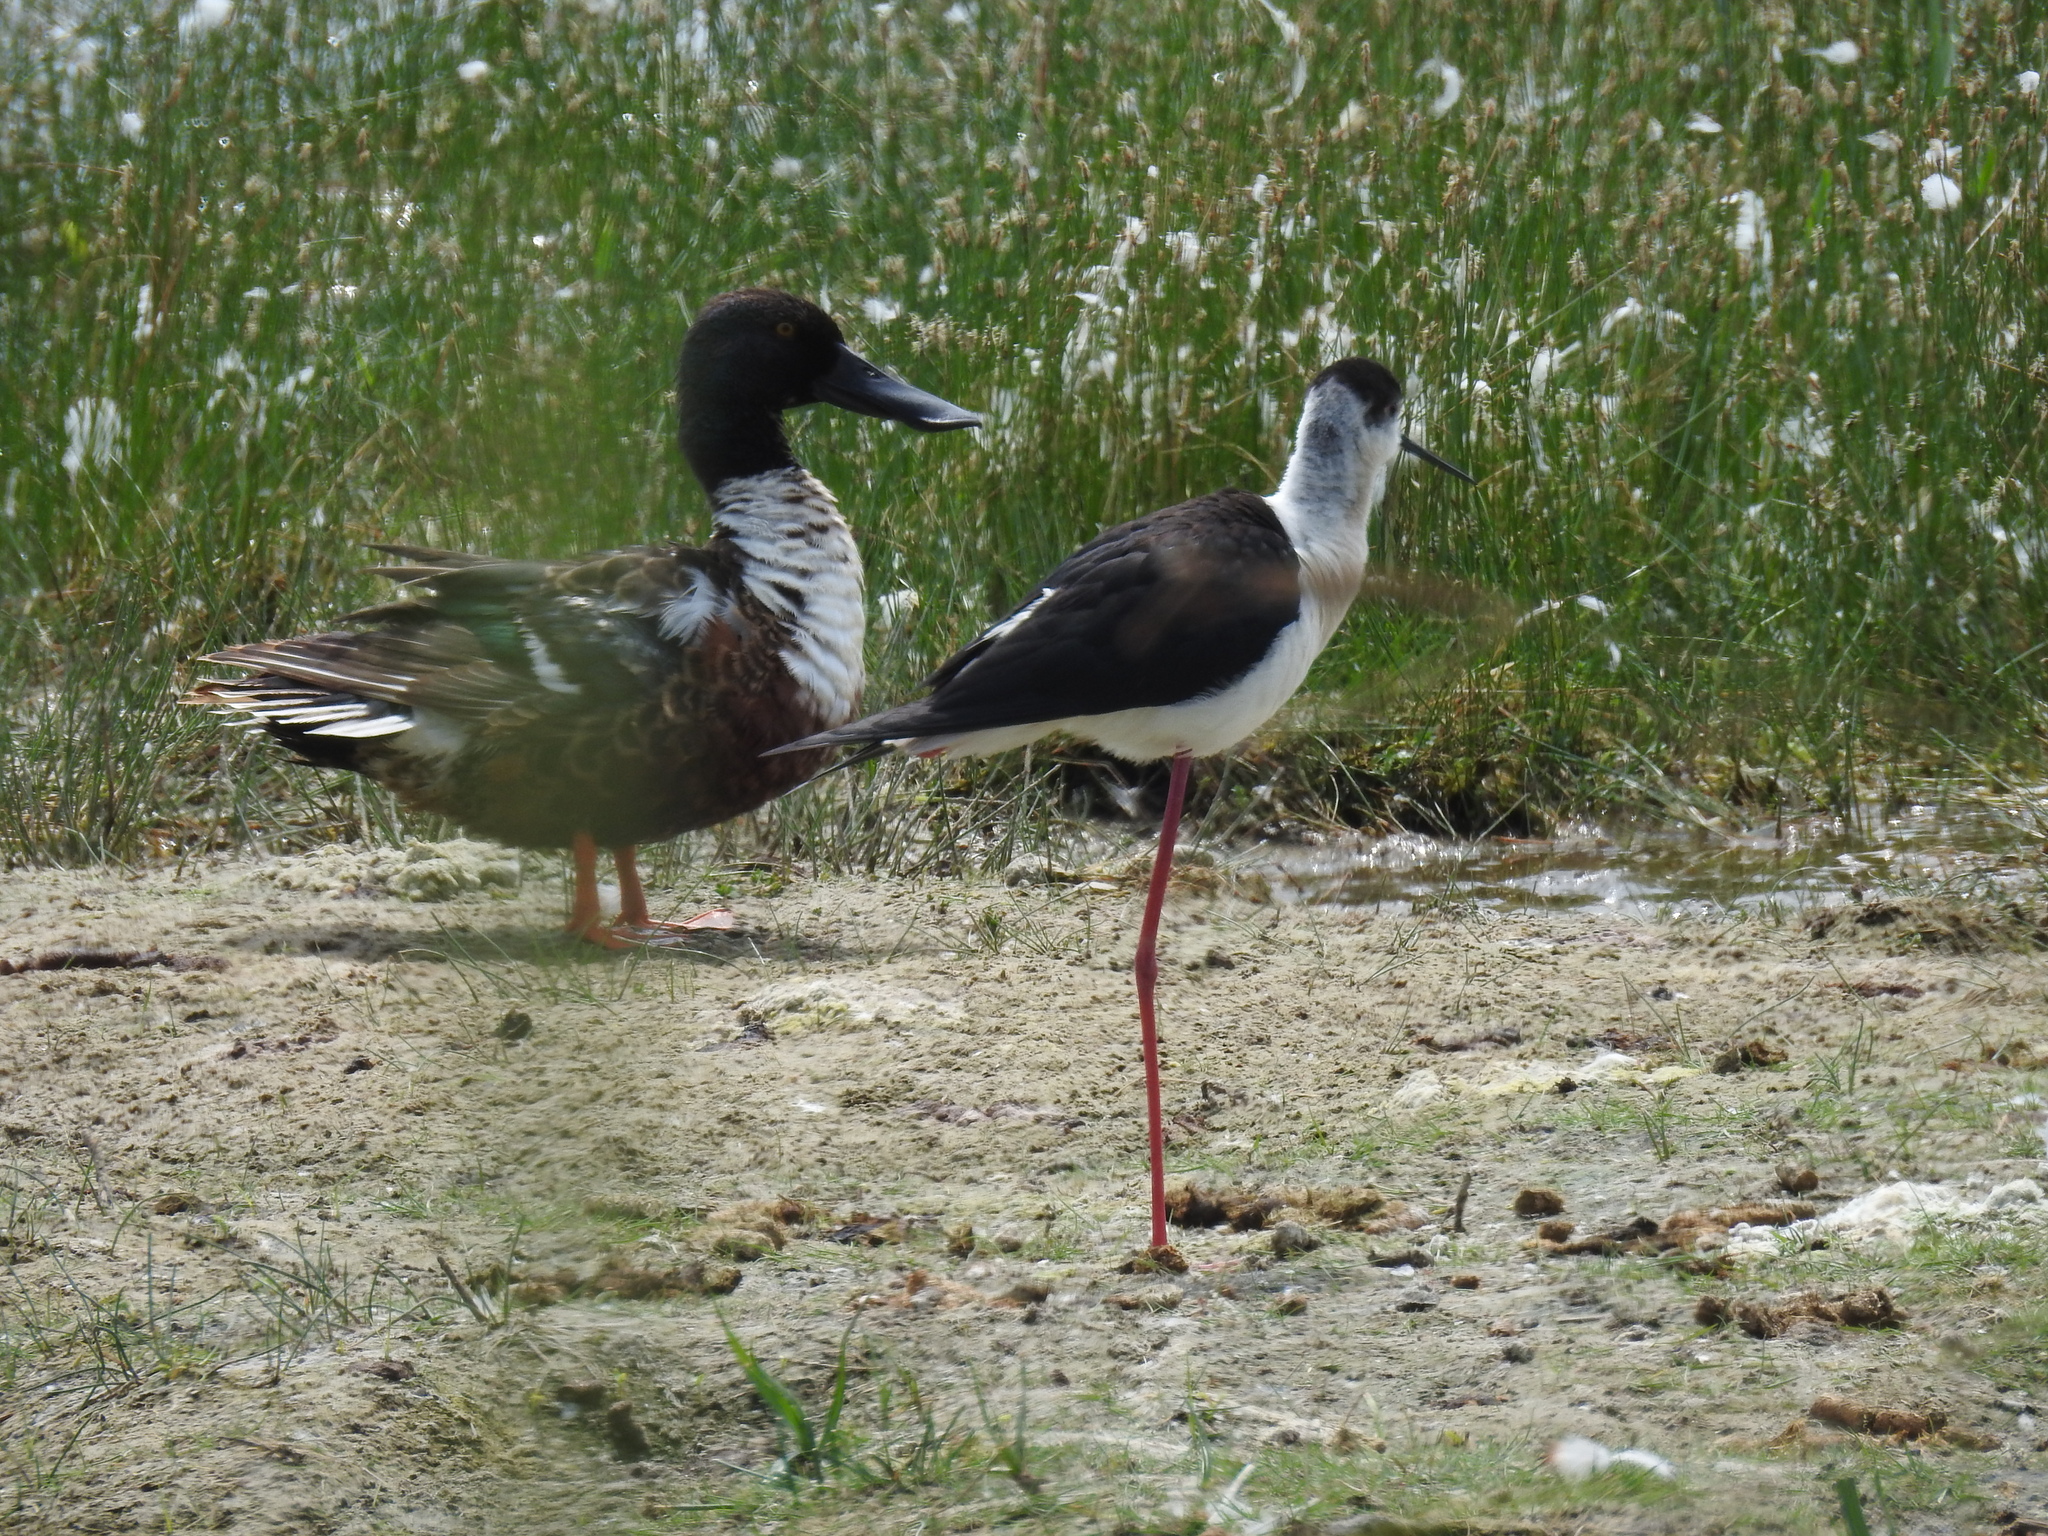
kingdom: Animalia
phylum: Chordata
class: Aves
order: Anseriformes
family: Anatidae
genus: Spatula
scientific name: Spatula clypeata
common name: Northern shoveler
